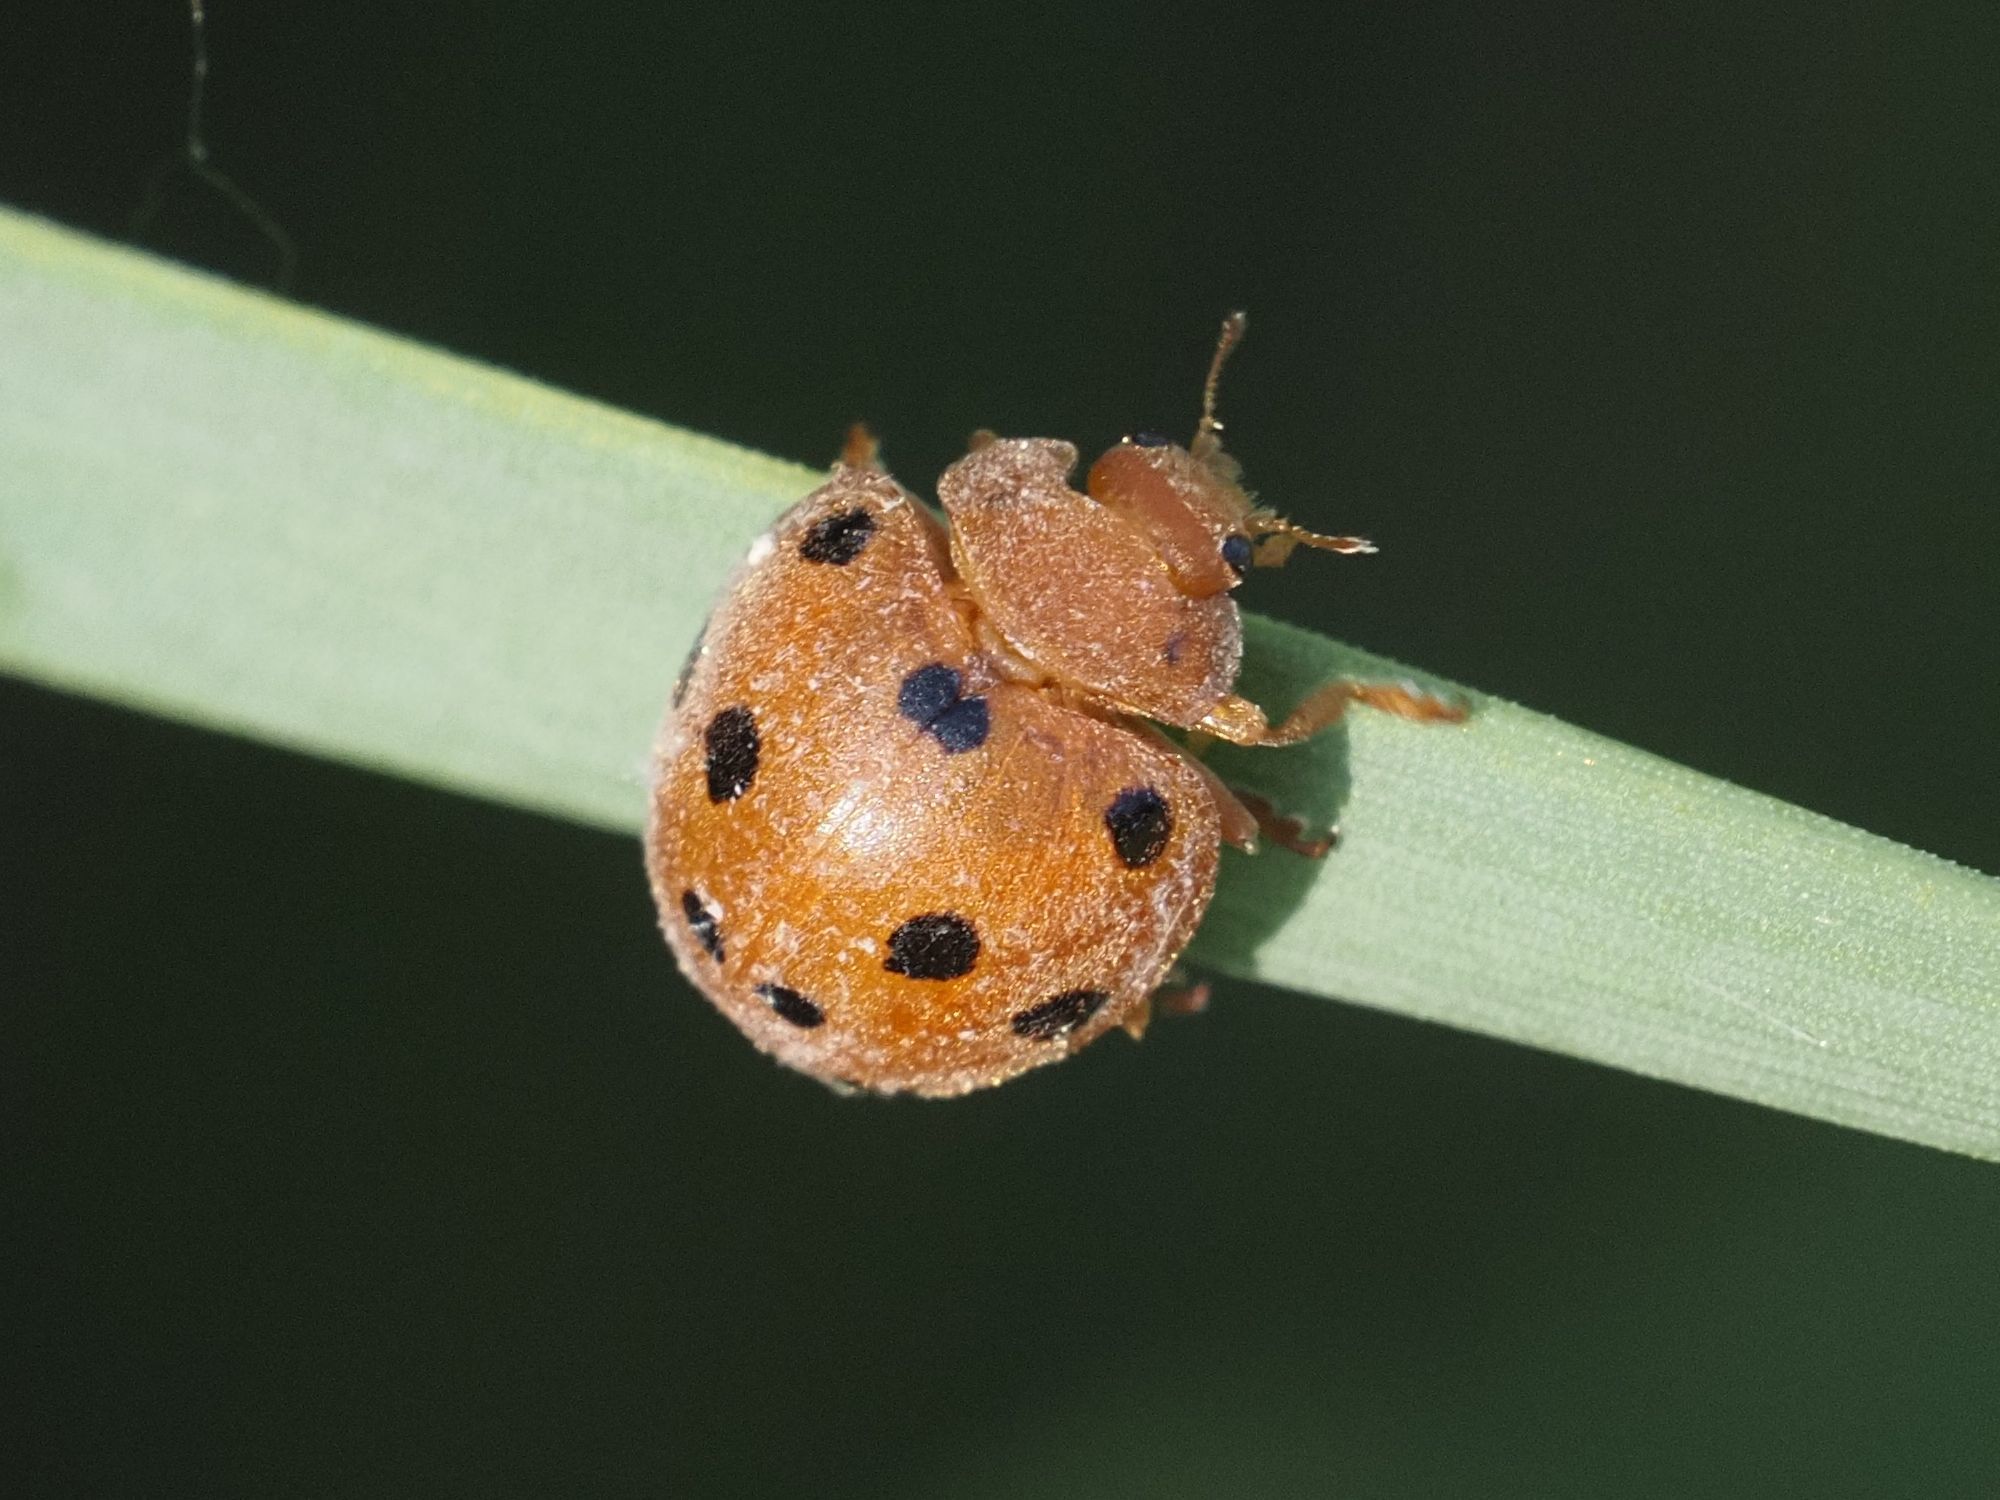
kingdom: Animalia
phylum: Arthropoda
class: Insecta
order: Coleoptera
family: Coccinellidae
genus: Henosepilachna
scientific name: Henosepilachna argus
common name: Bryony ladybird
